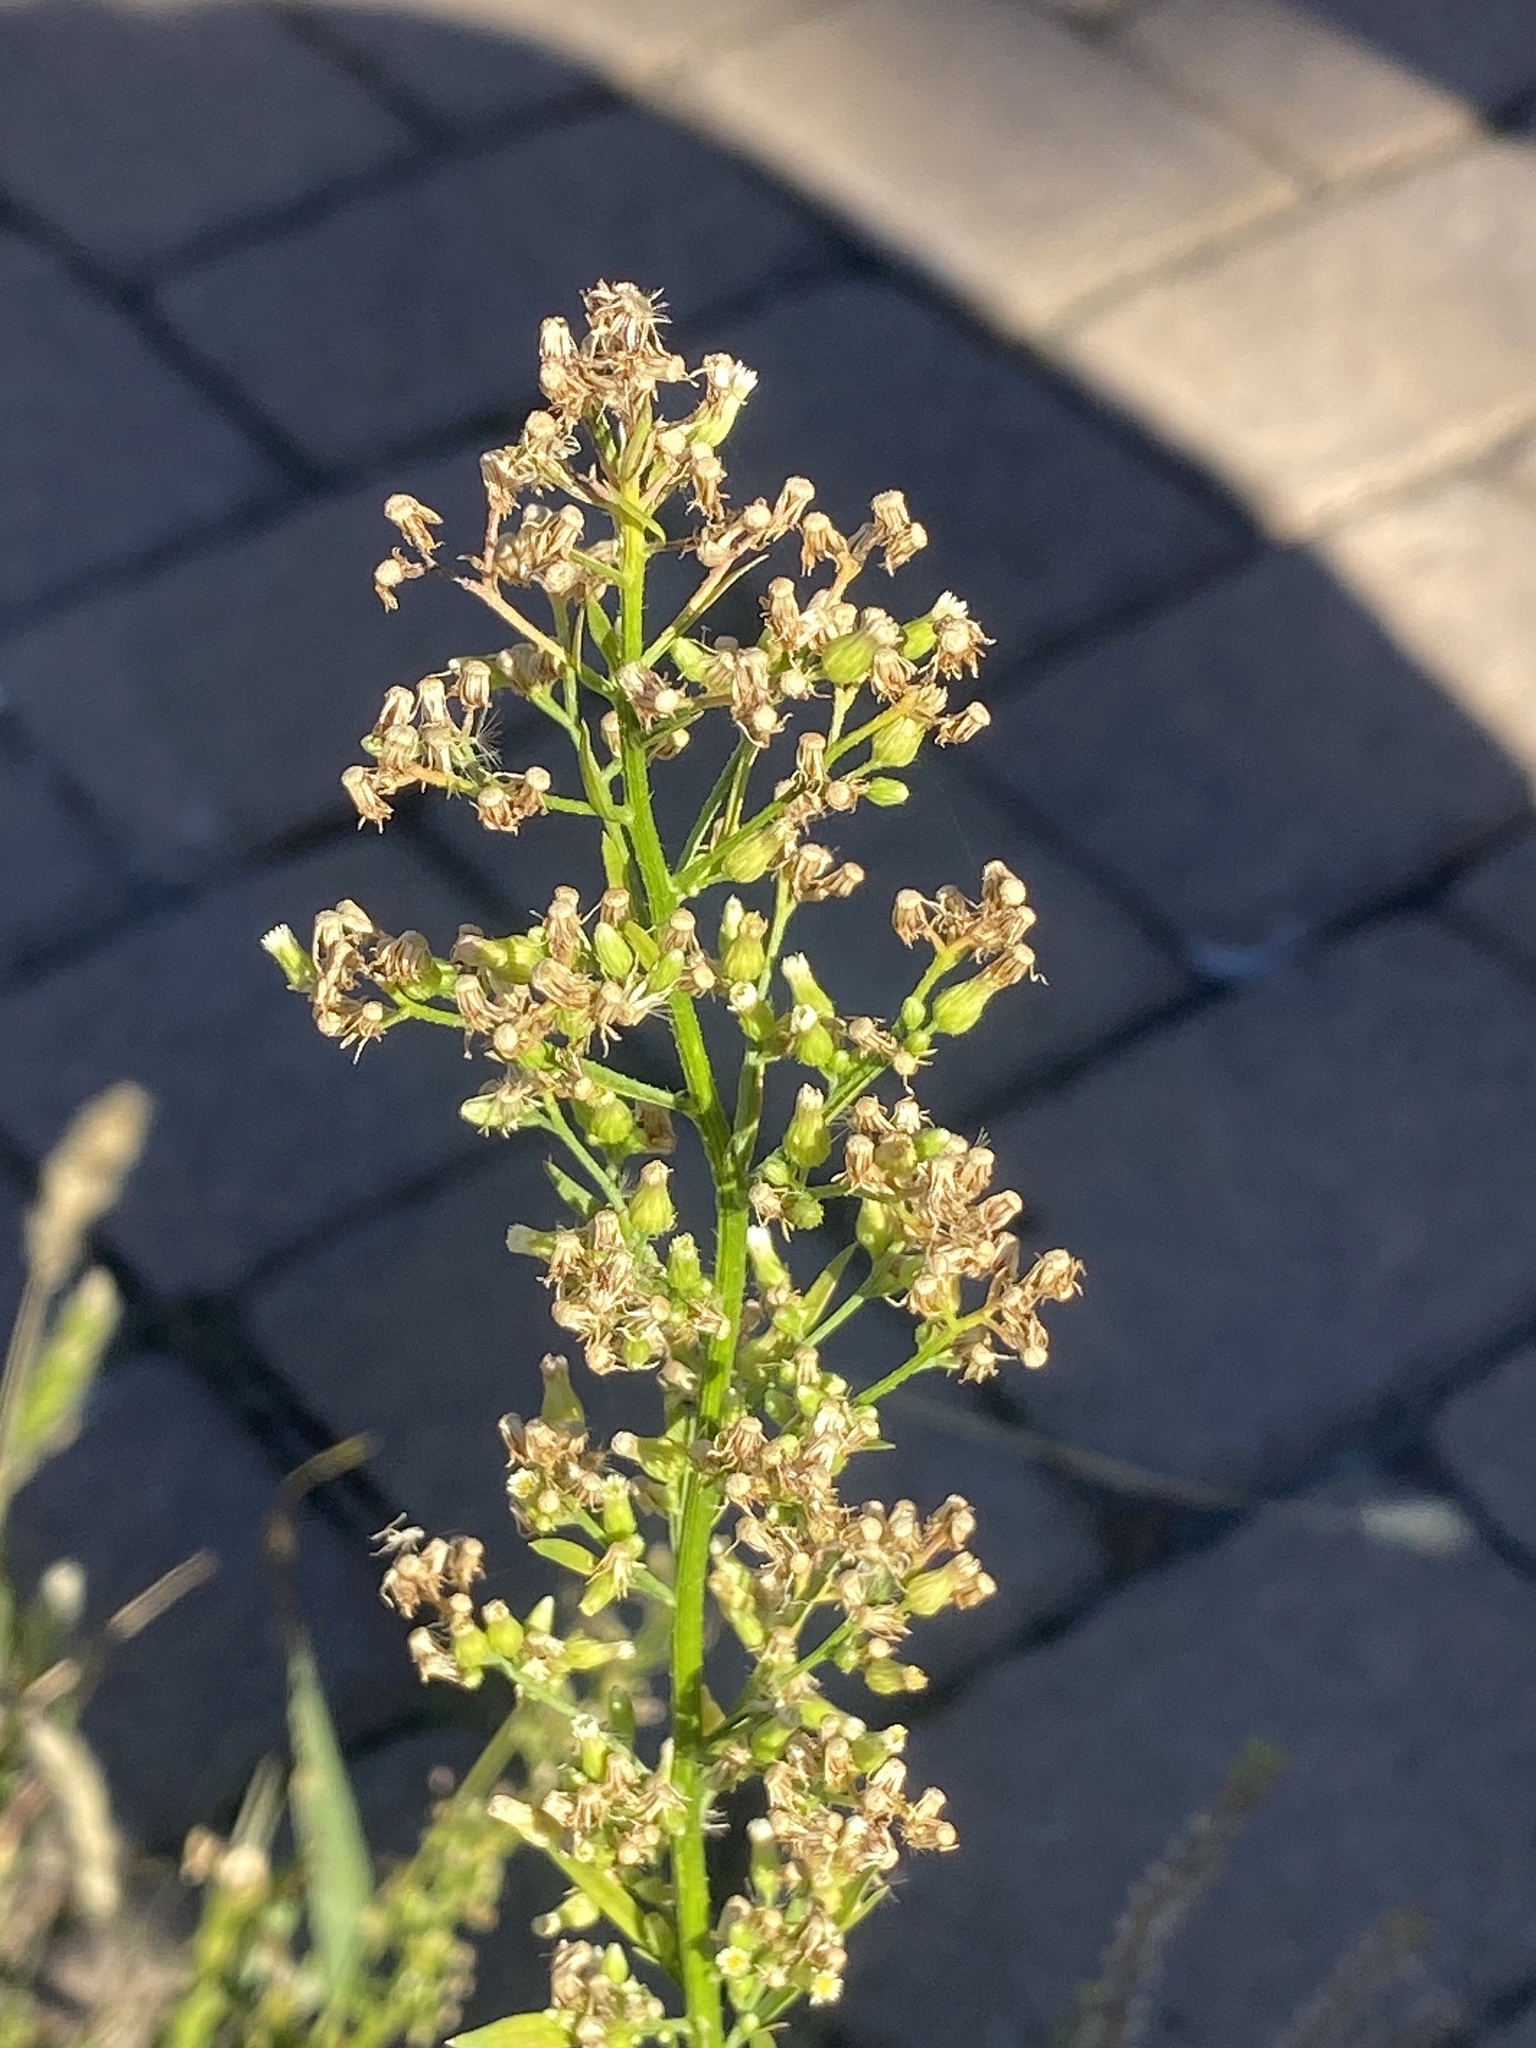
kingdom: Plantae
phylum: Tracheophyta
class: Magnoliopsida
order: Asterales
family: Asteraceae
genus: Erigeron
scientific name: Erigeron canadensis
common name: Canadian fleabane
